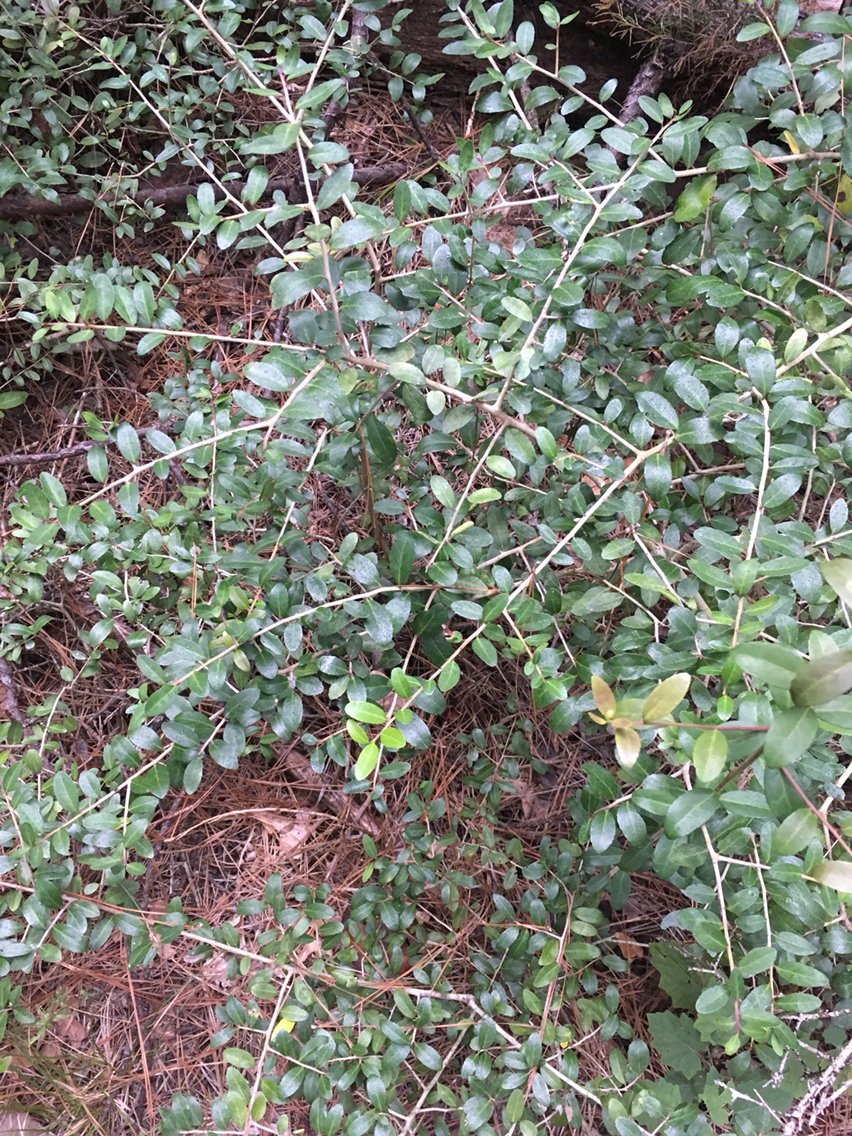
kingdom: Plantae
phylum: Tracheophyta
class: Magnoliopsida
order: Aquifoliales
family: Aquifoliaceae
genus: Ilex
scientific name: Ilex vomitoria
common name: Yaupon holly
